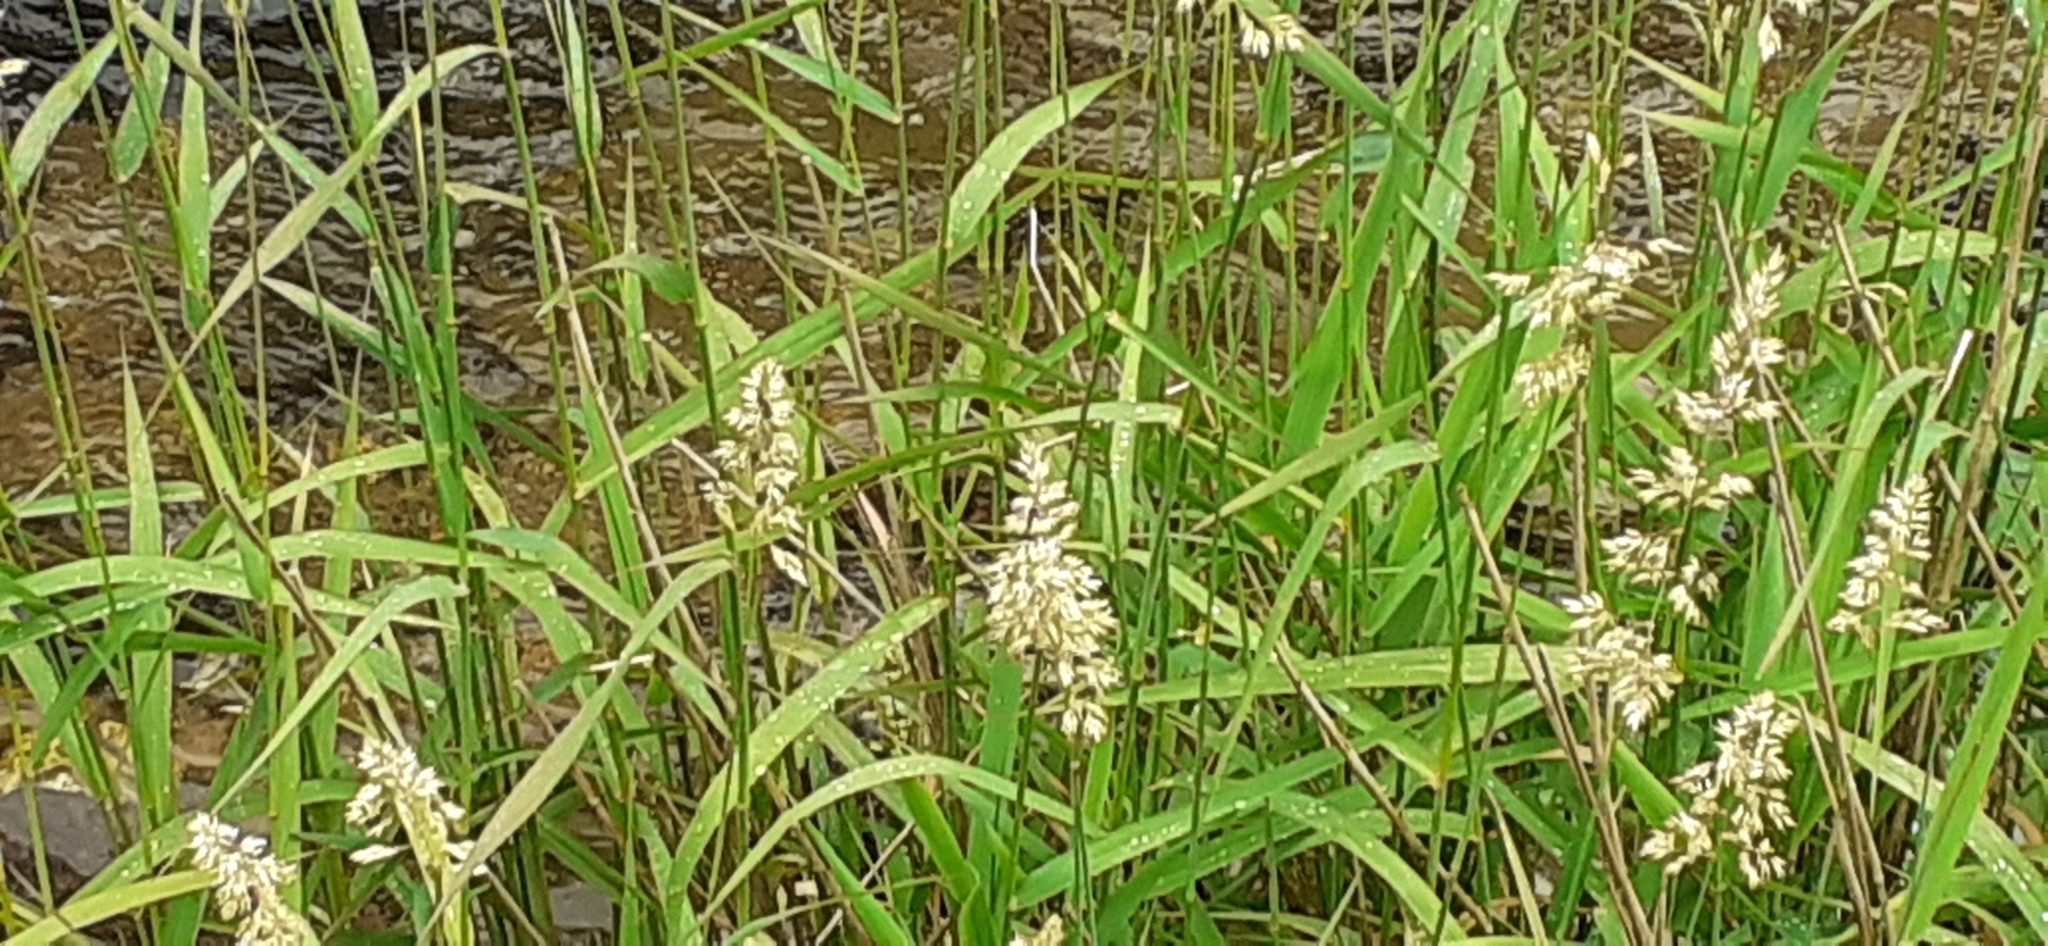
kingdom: Plantae
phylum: Tracheophyta
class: Liliopsida
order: Poales
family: Poaceae
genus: Phalaris
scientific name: Phalaris arundinacea
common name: Reed canary-grass
